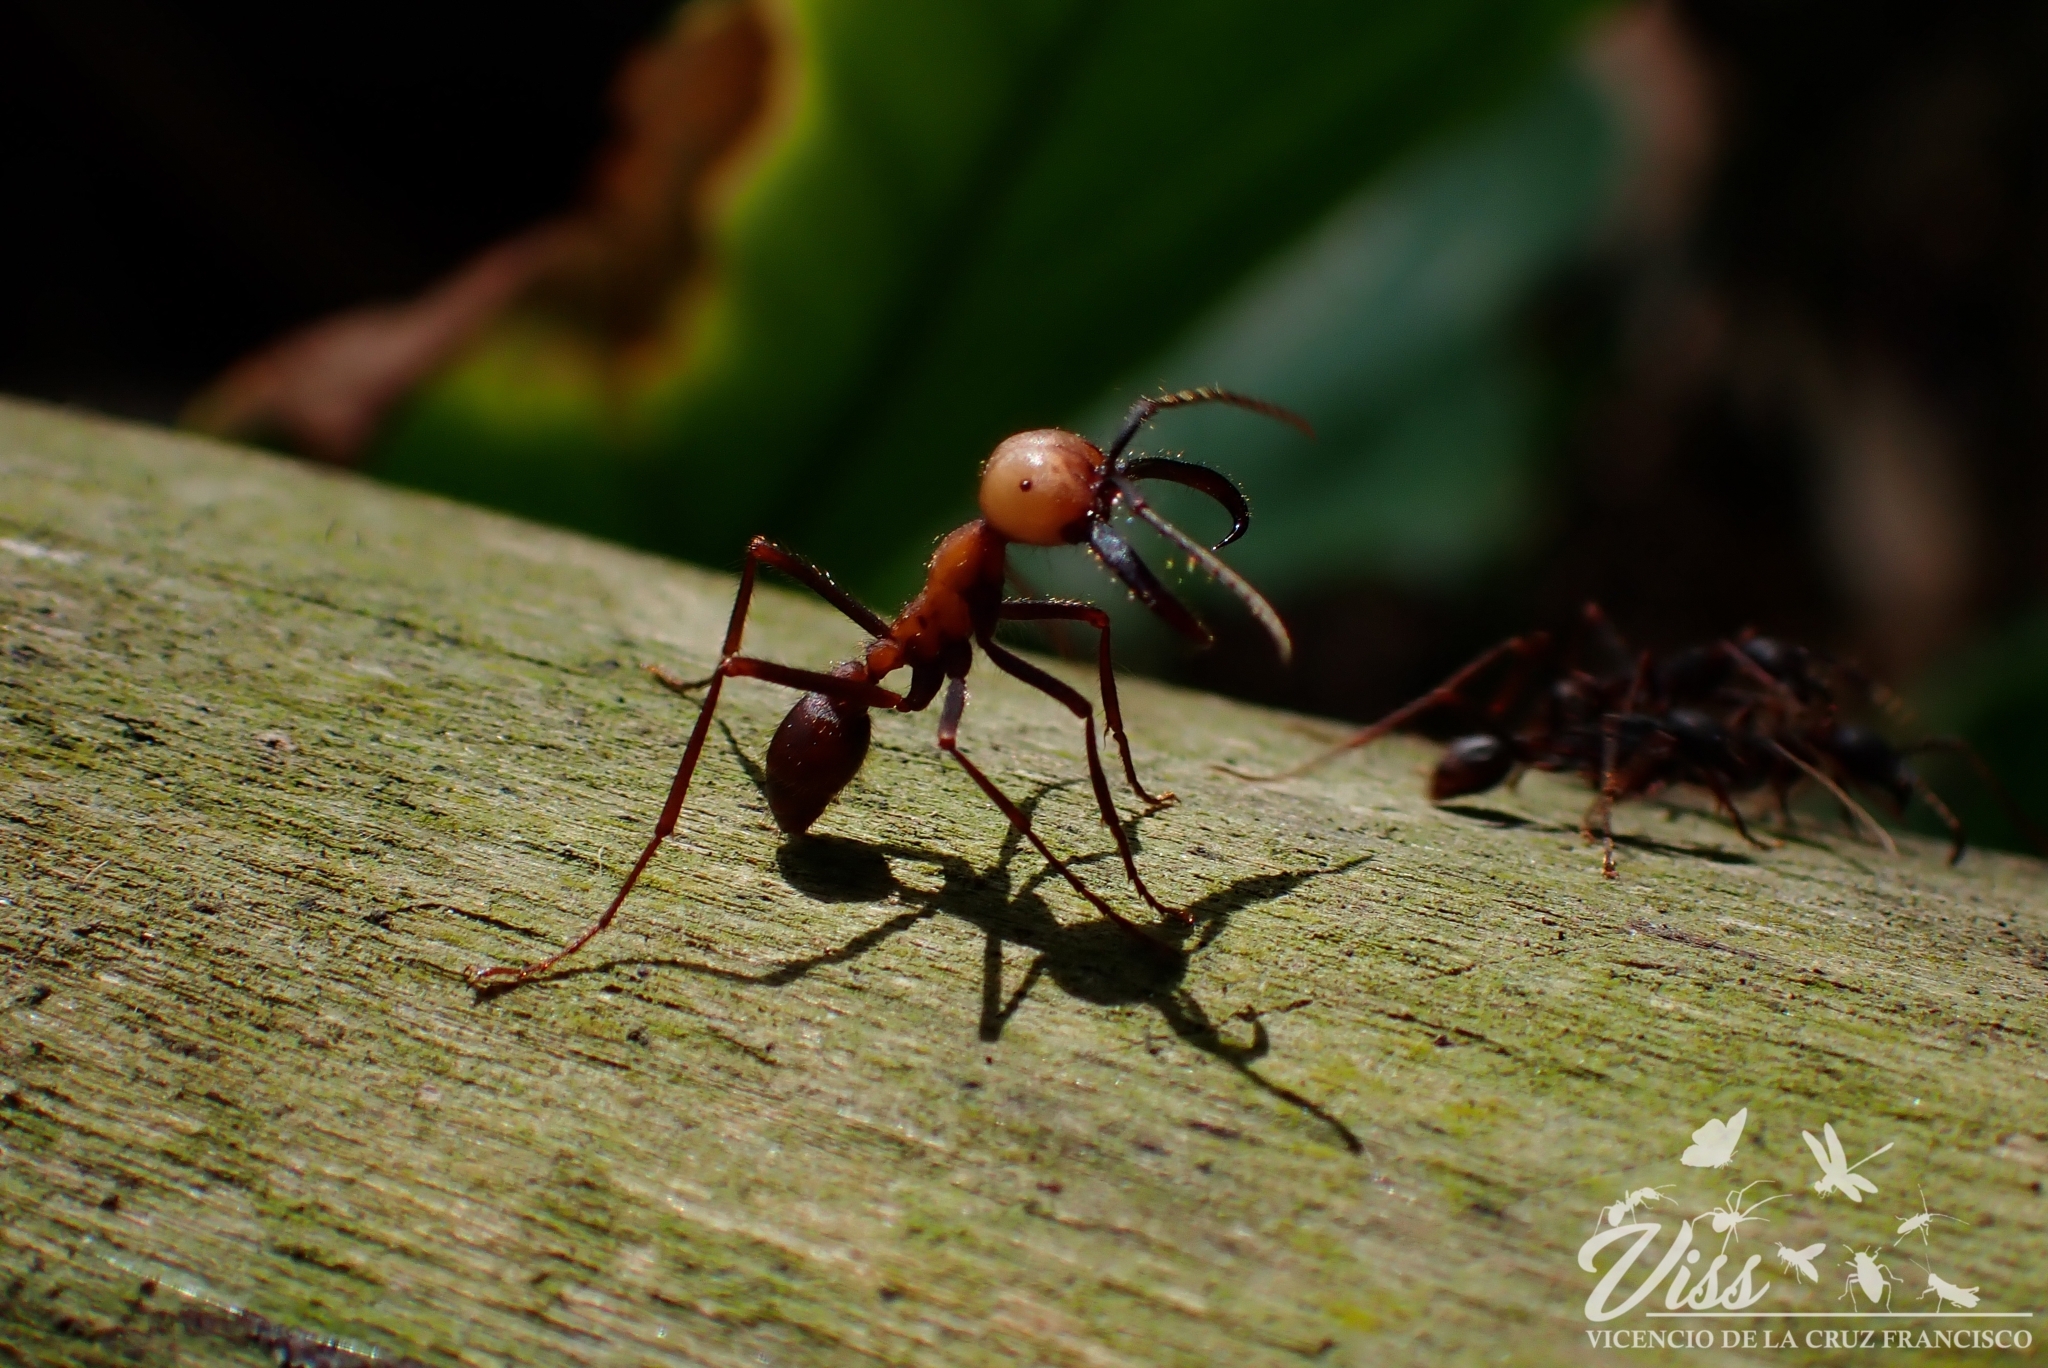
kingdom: Animalia
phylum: Arthropoda
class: Insecta
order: Hymenoptera
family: Formicidae
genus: Eciton
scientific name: Eciton burchellii
